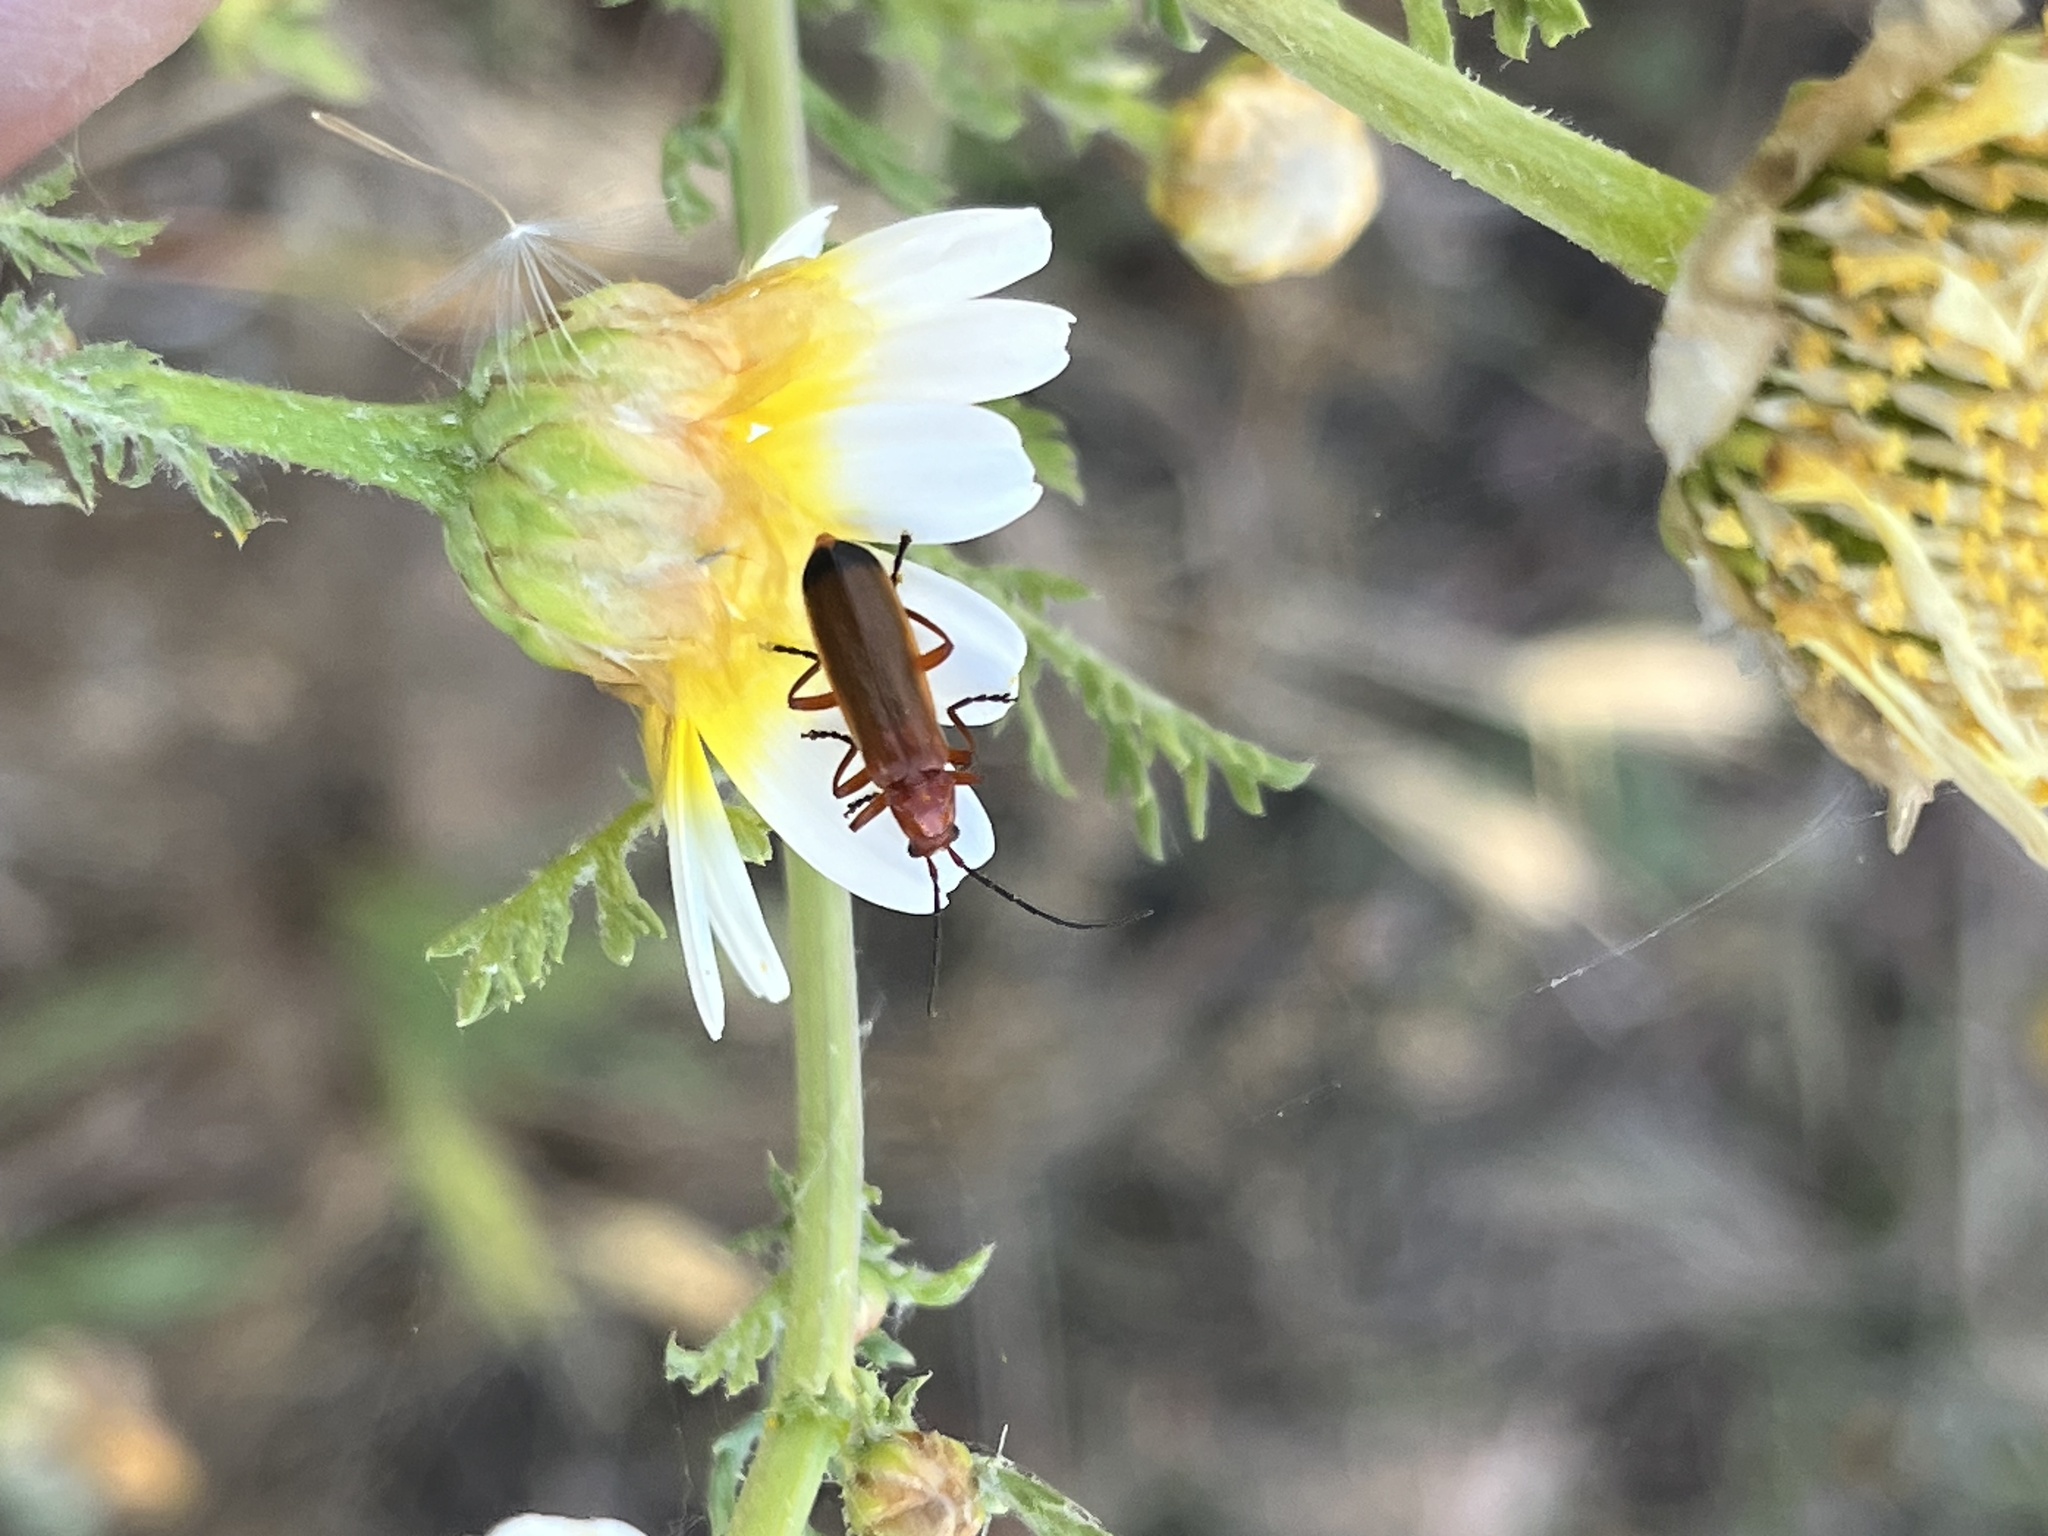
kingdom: Animalia
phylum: Arthropoda
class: Insecta
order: Coleoptera
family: Cantharidae
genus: Rhagonycha
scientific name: Rhagonycha fulva
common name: Common red soldier beetle
